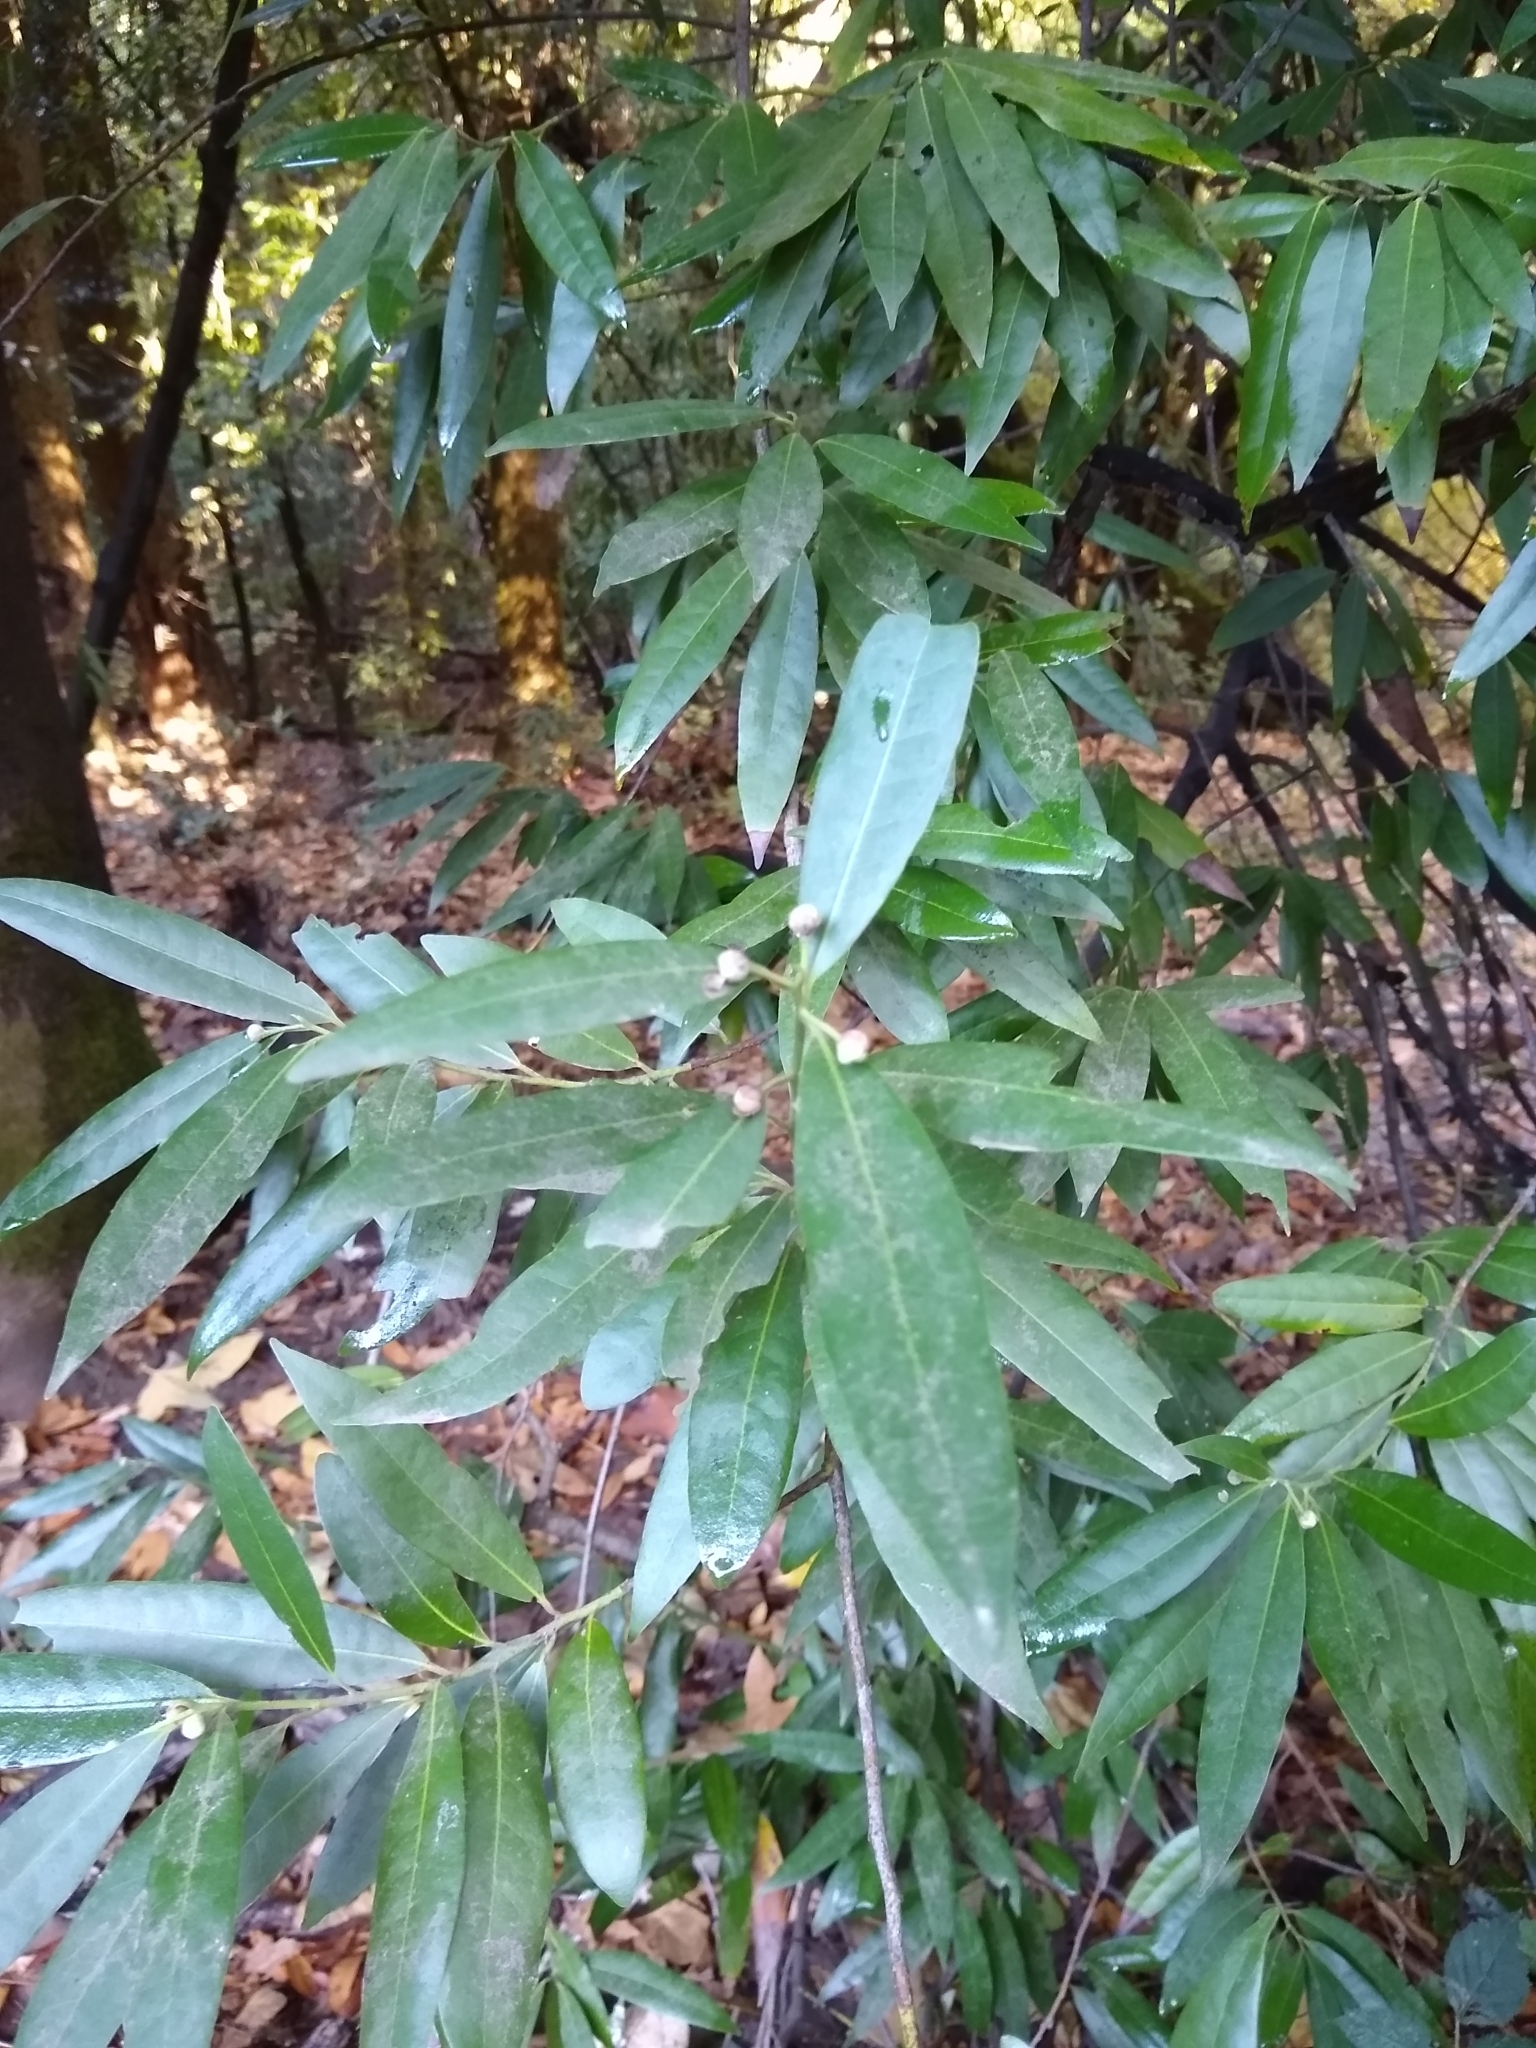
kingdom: Plantae
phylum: Tracheophyta
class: Magnoliopsida
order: Laurales
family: Lauraceae
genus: Umbellularia
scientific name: Umbellularia californica
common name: California bay
